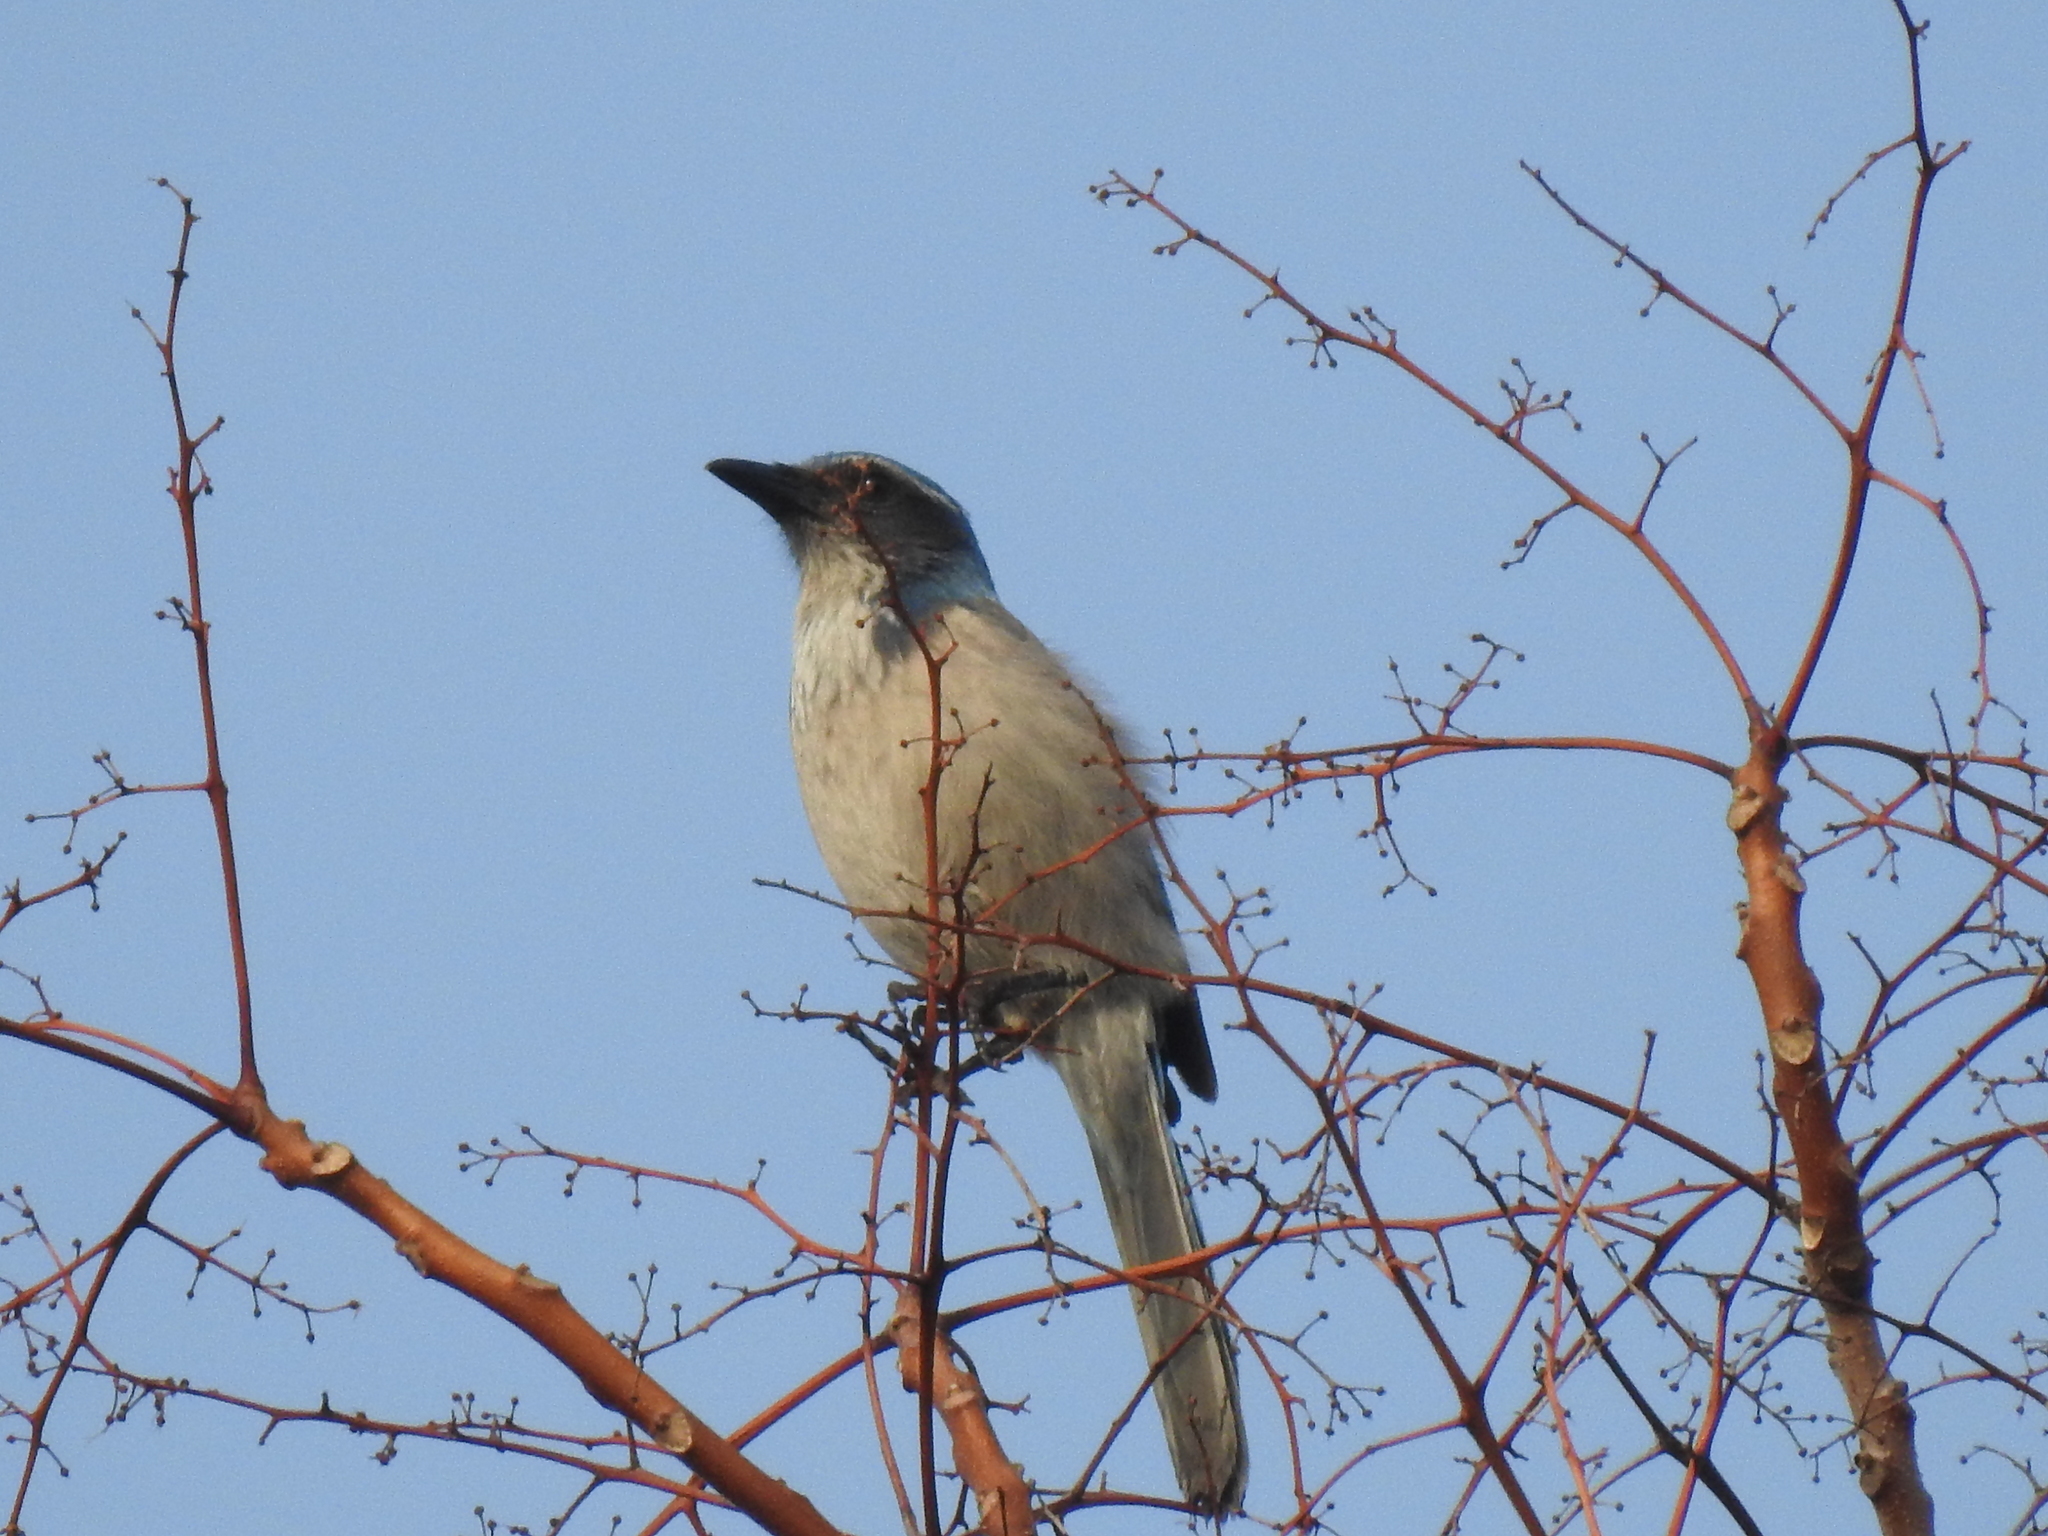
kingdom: Animalia
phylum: Chordata
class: Aves
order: Passeriformes
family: Corvidae
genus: Aphelocoma
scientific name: Aphelocoma californica
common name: California scrub-jay
